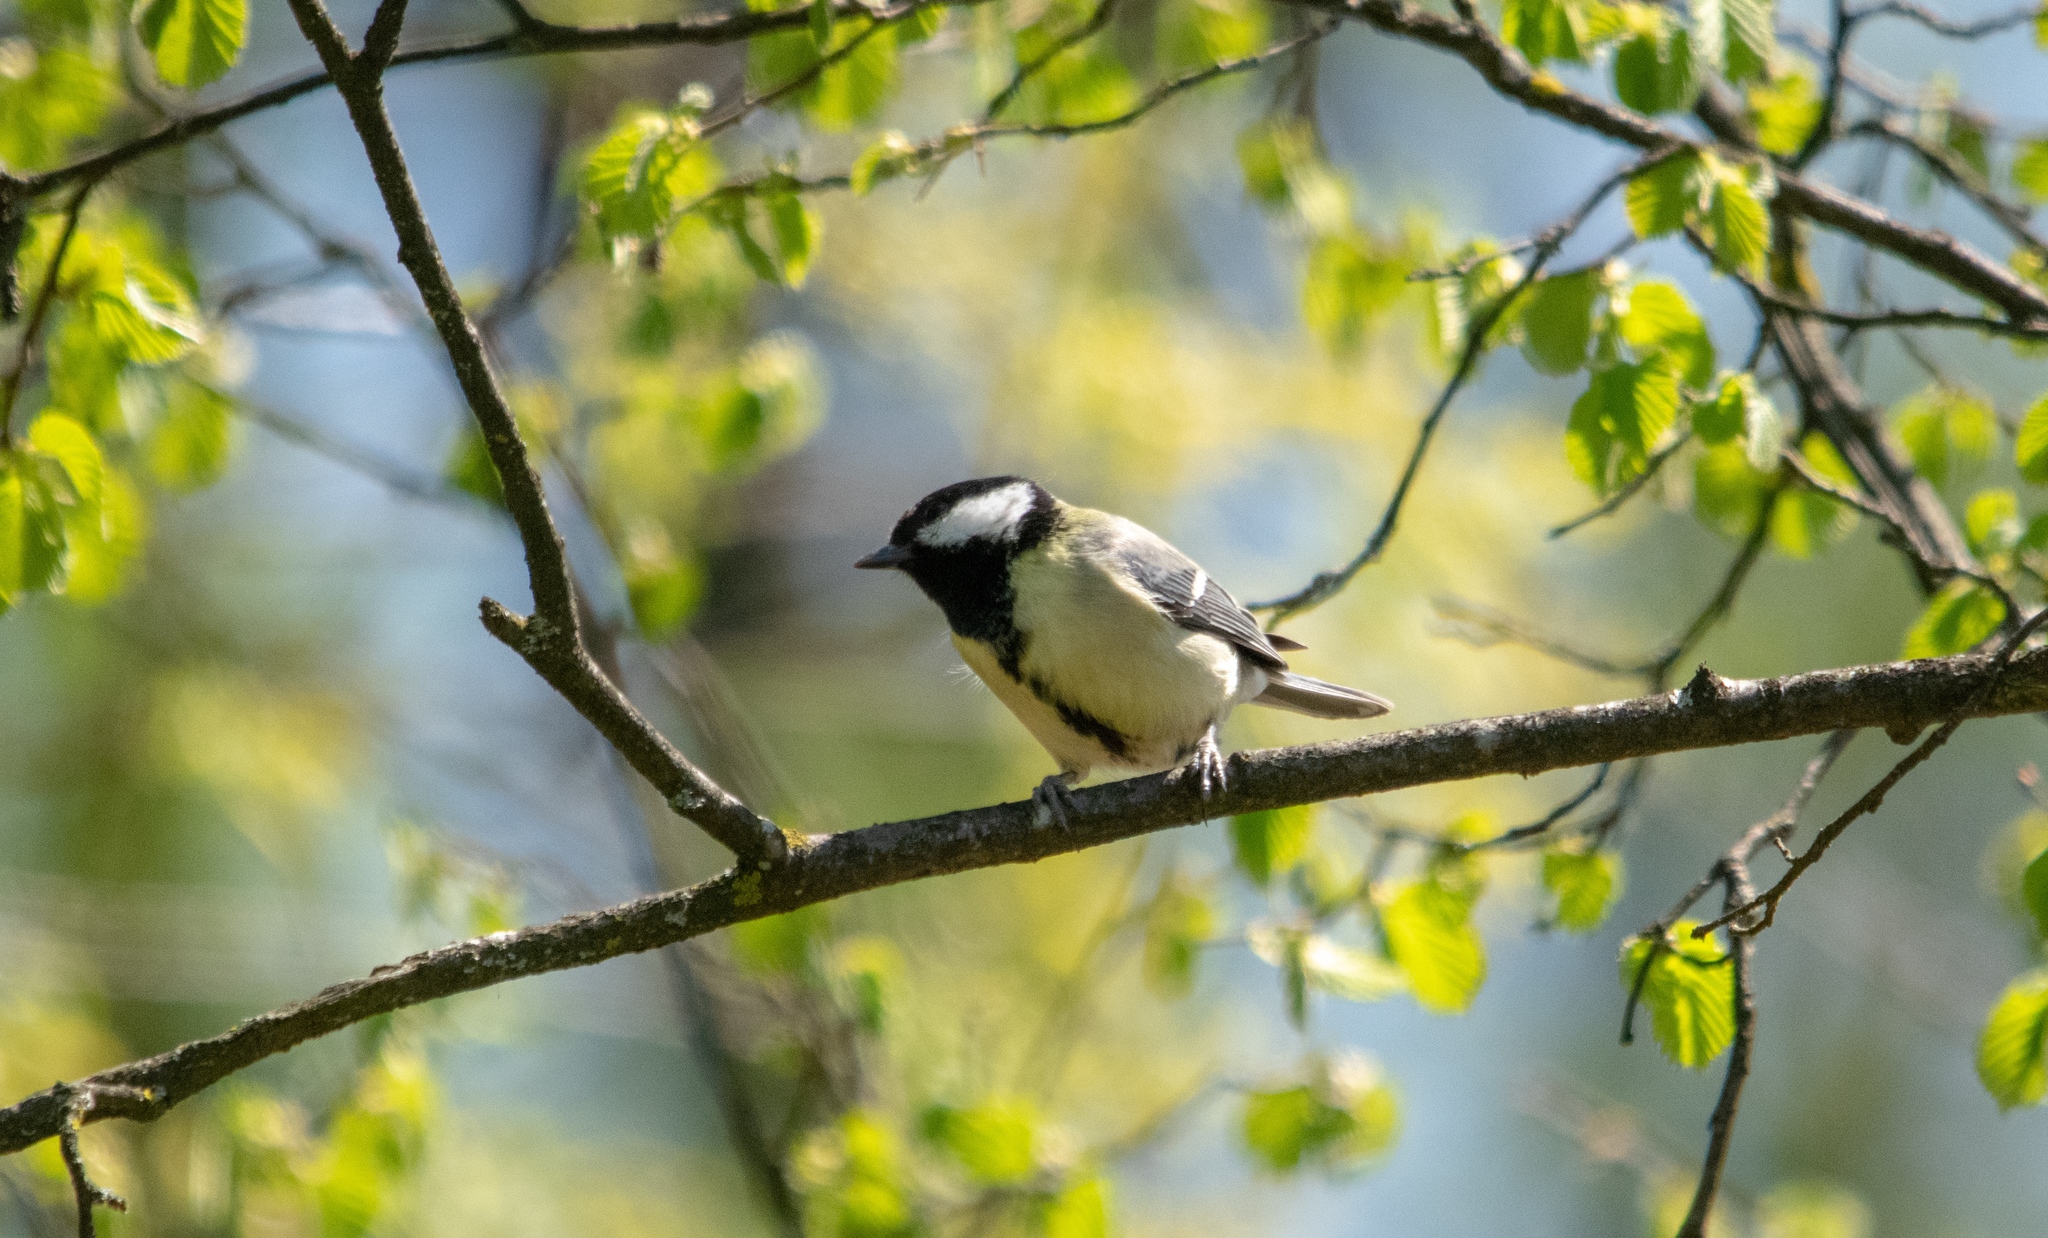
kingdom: Animalia
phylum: Chordata
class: Aves
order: Passeriformes
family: Paridae
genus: Parus
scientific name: Parus major
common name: Great tit
